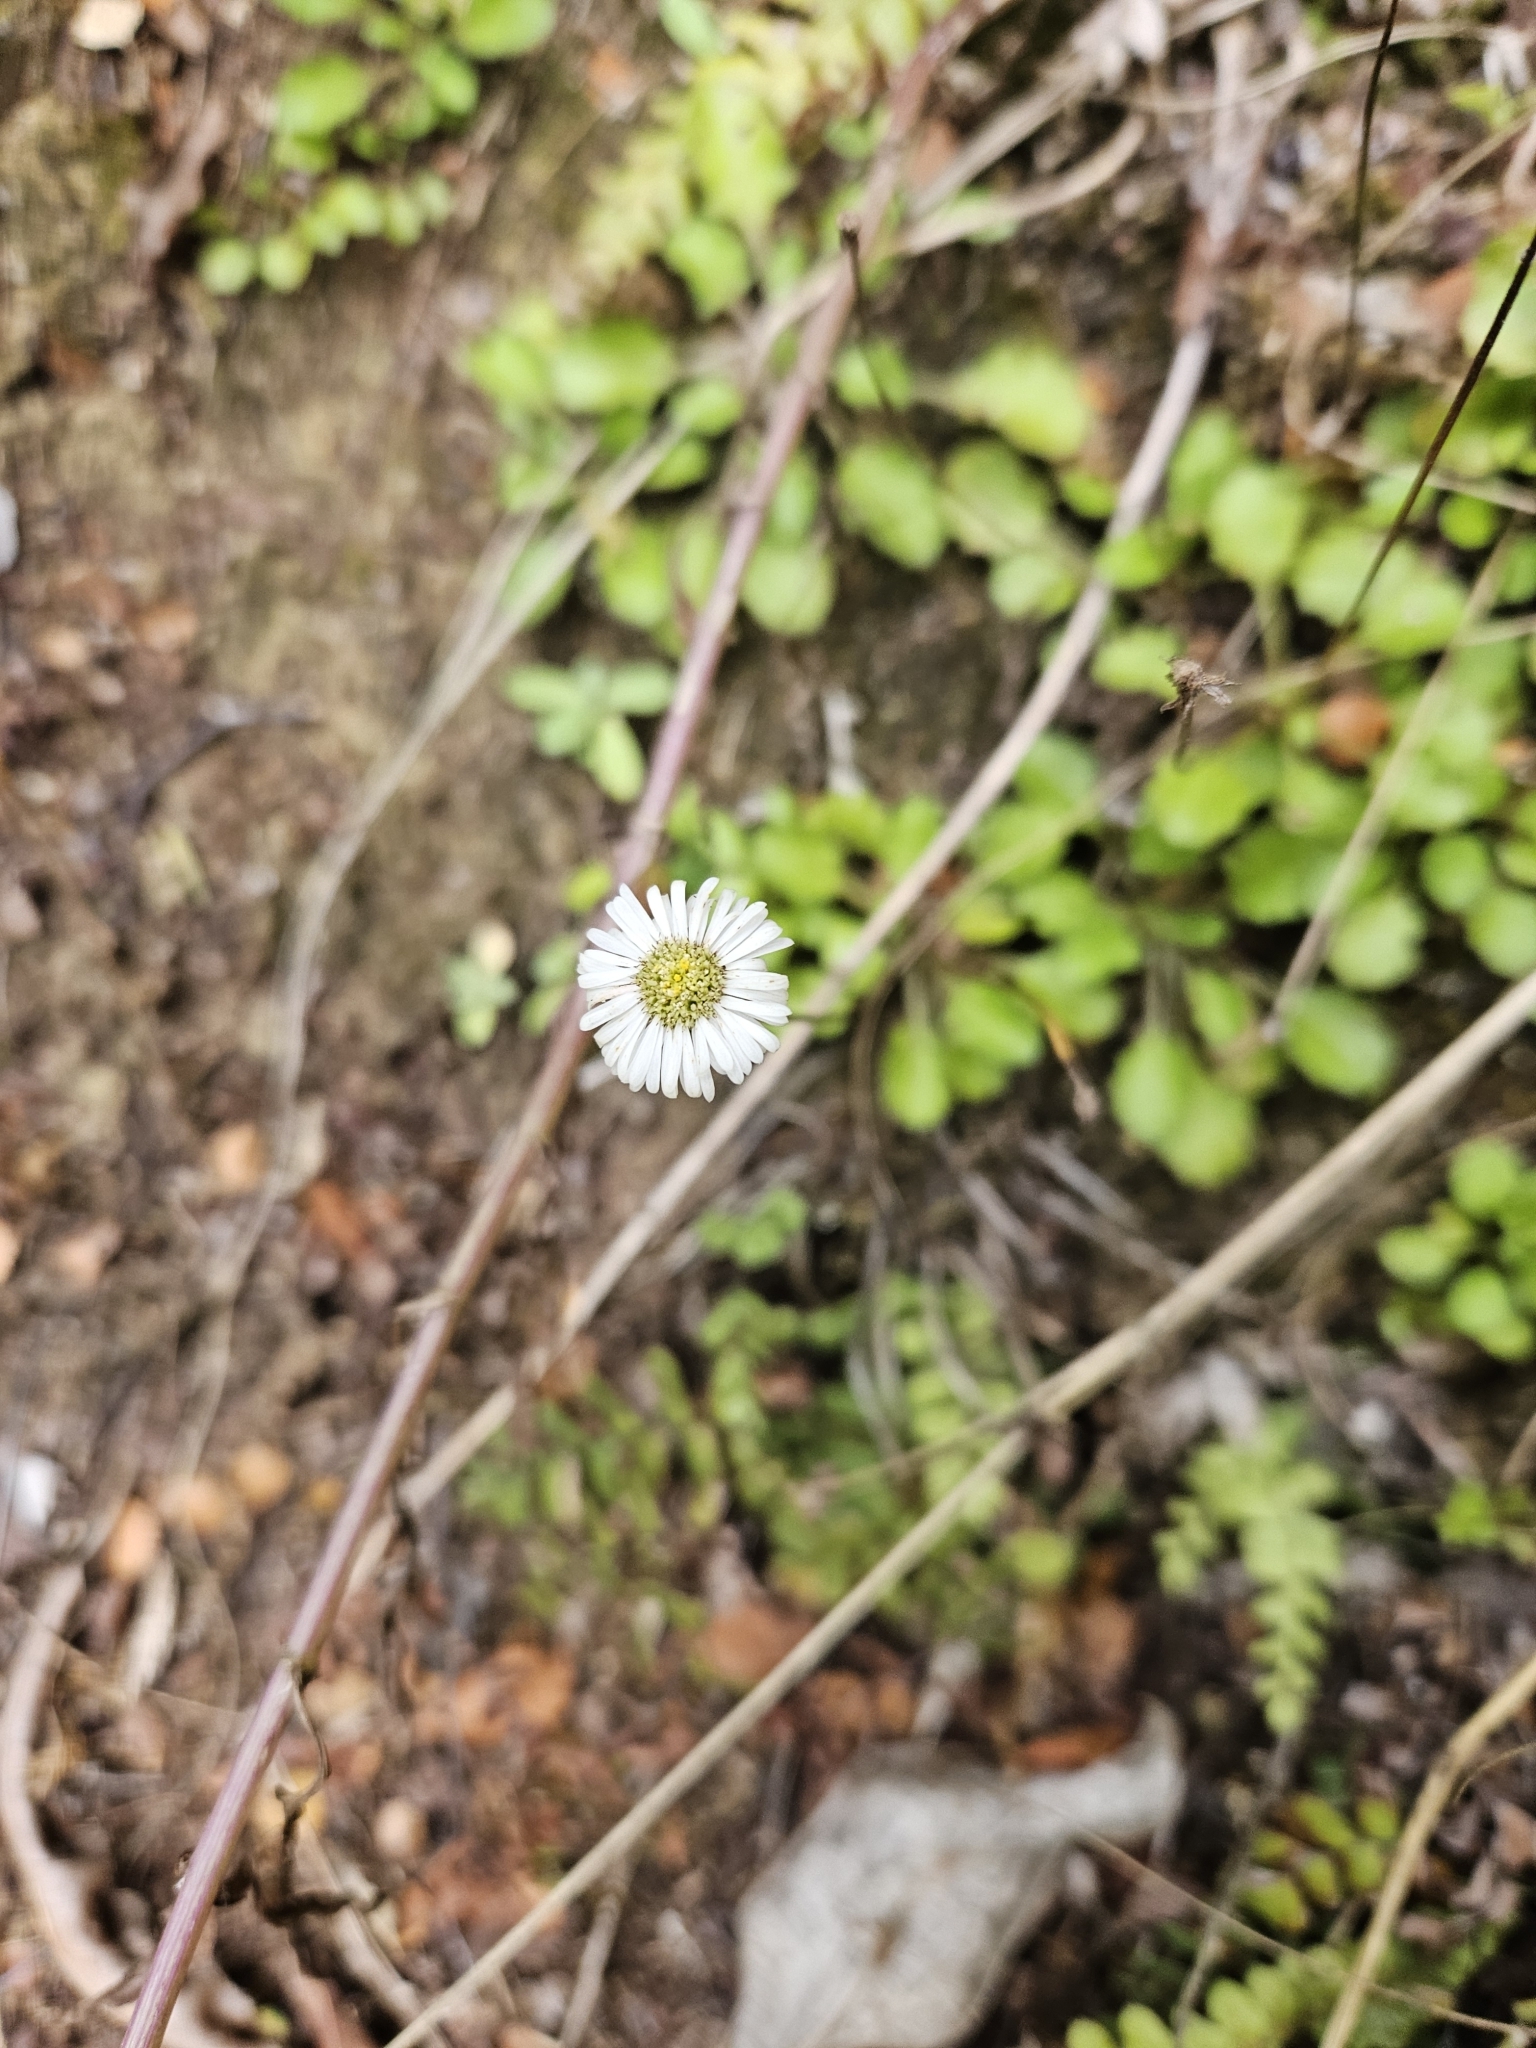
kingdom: Plantae
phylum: Tracheophyta
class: Magnoliopsida
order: Asterales
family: Asteraceae
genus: Lagenophora
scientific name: Lagenophora pumila
